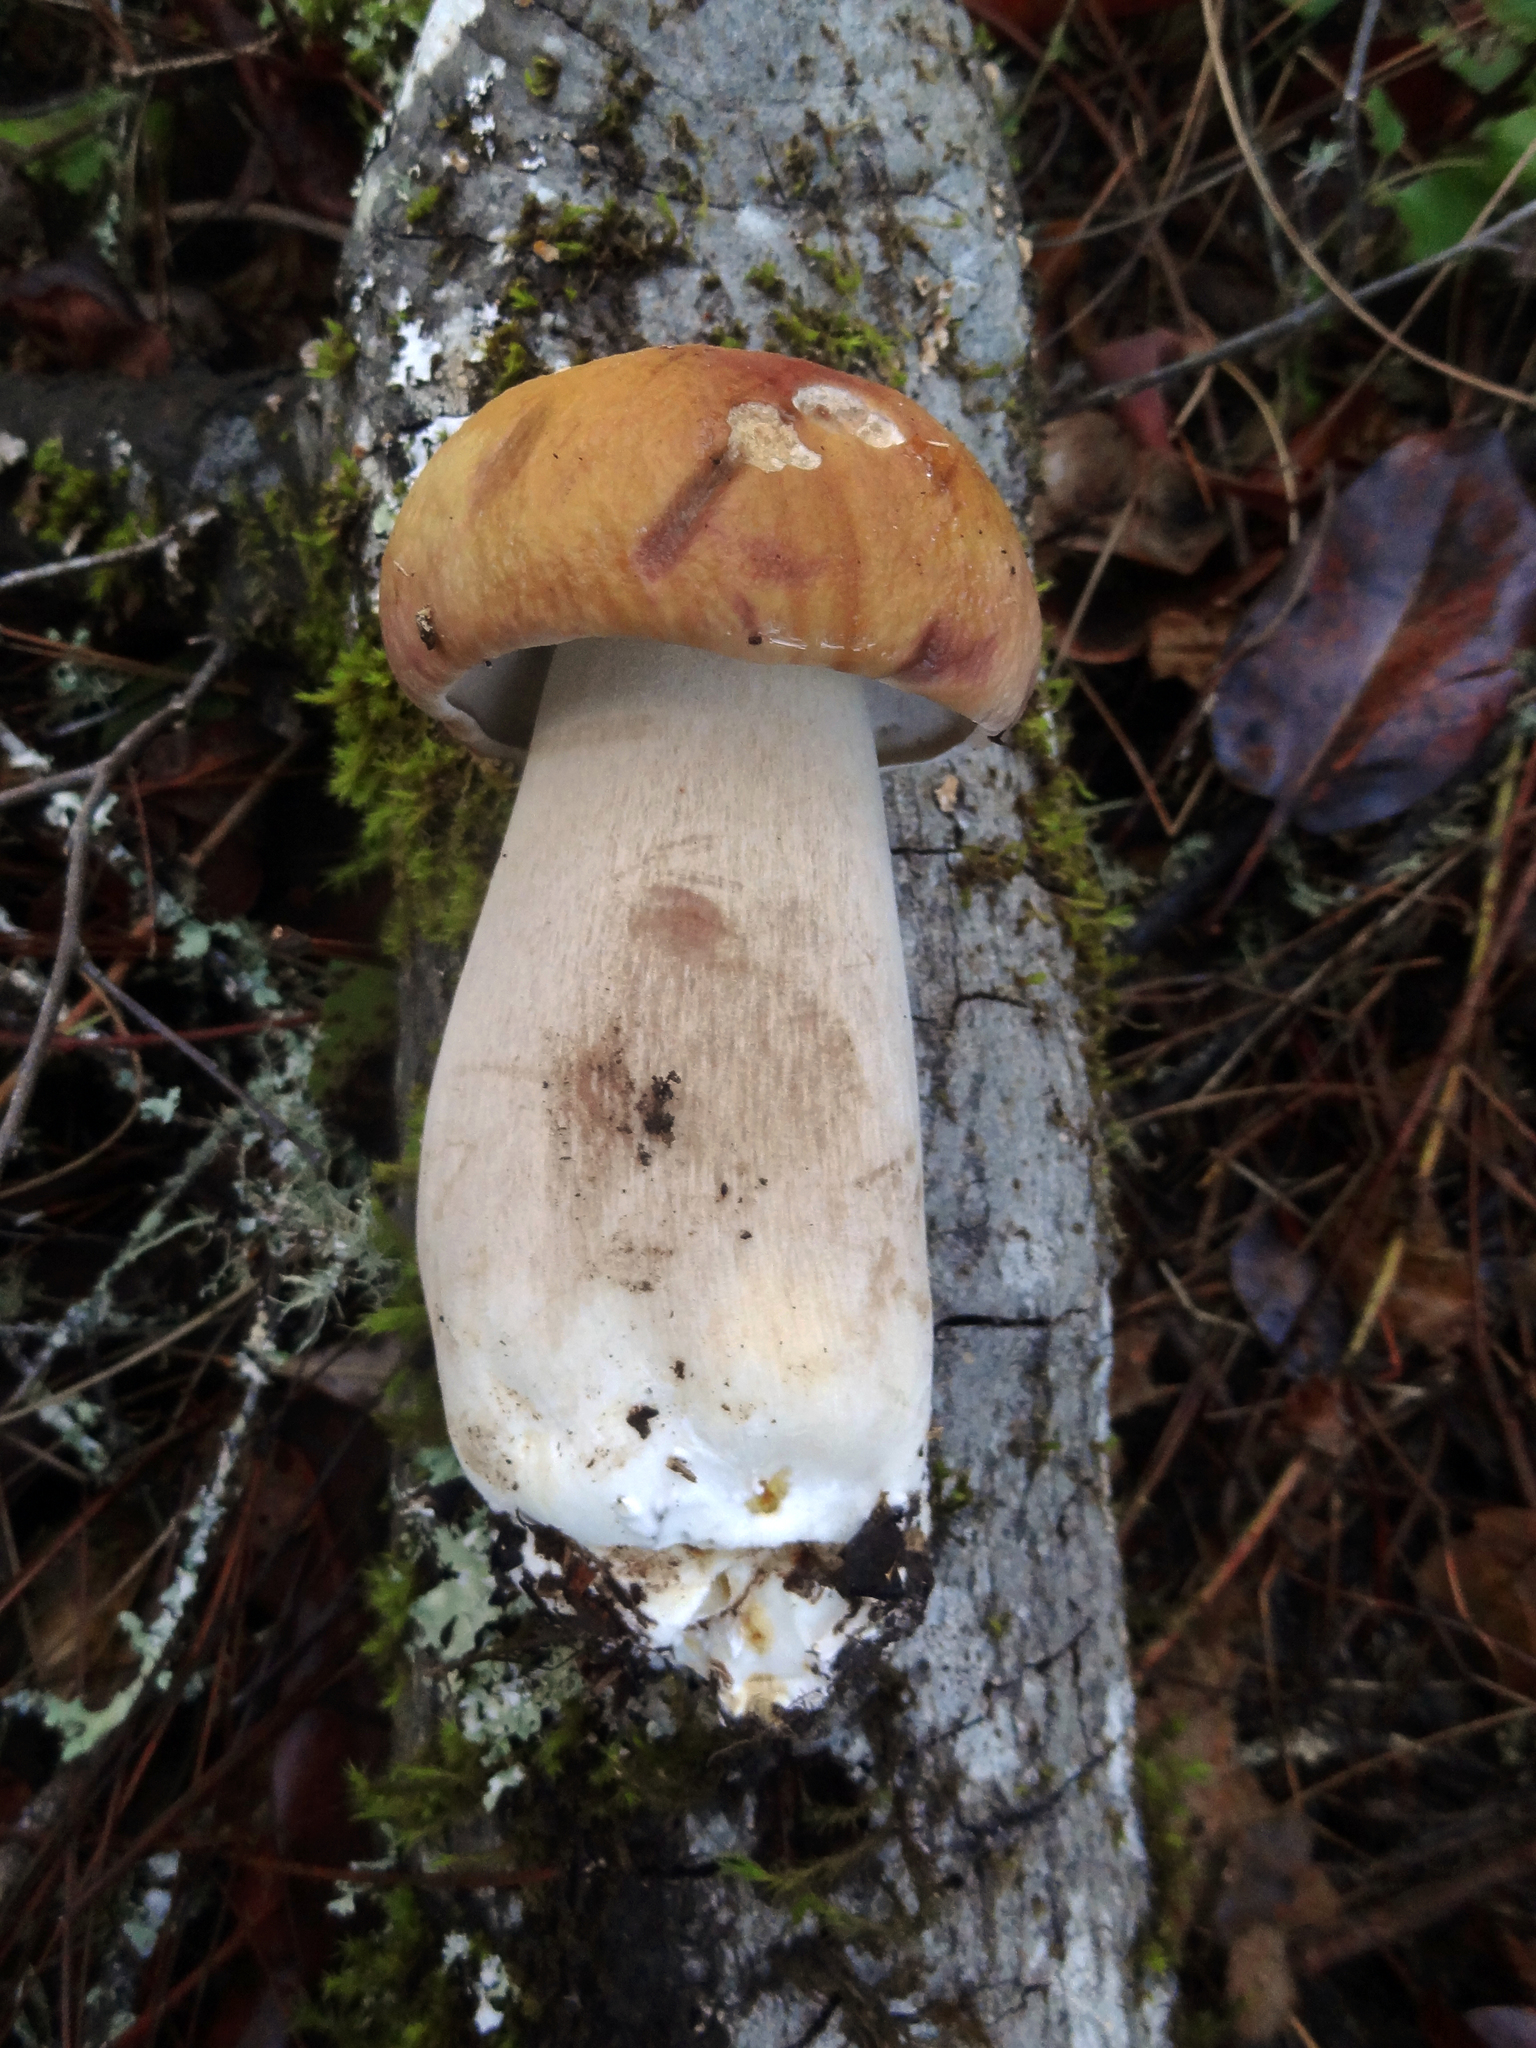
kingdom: Fungi
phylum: Basidiomycota
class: Agaricomycetes
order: Boletales
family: Boletaceae
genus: Boletus
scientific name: Boletus edulis
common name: Cep
